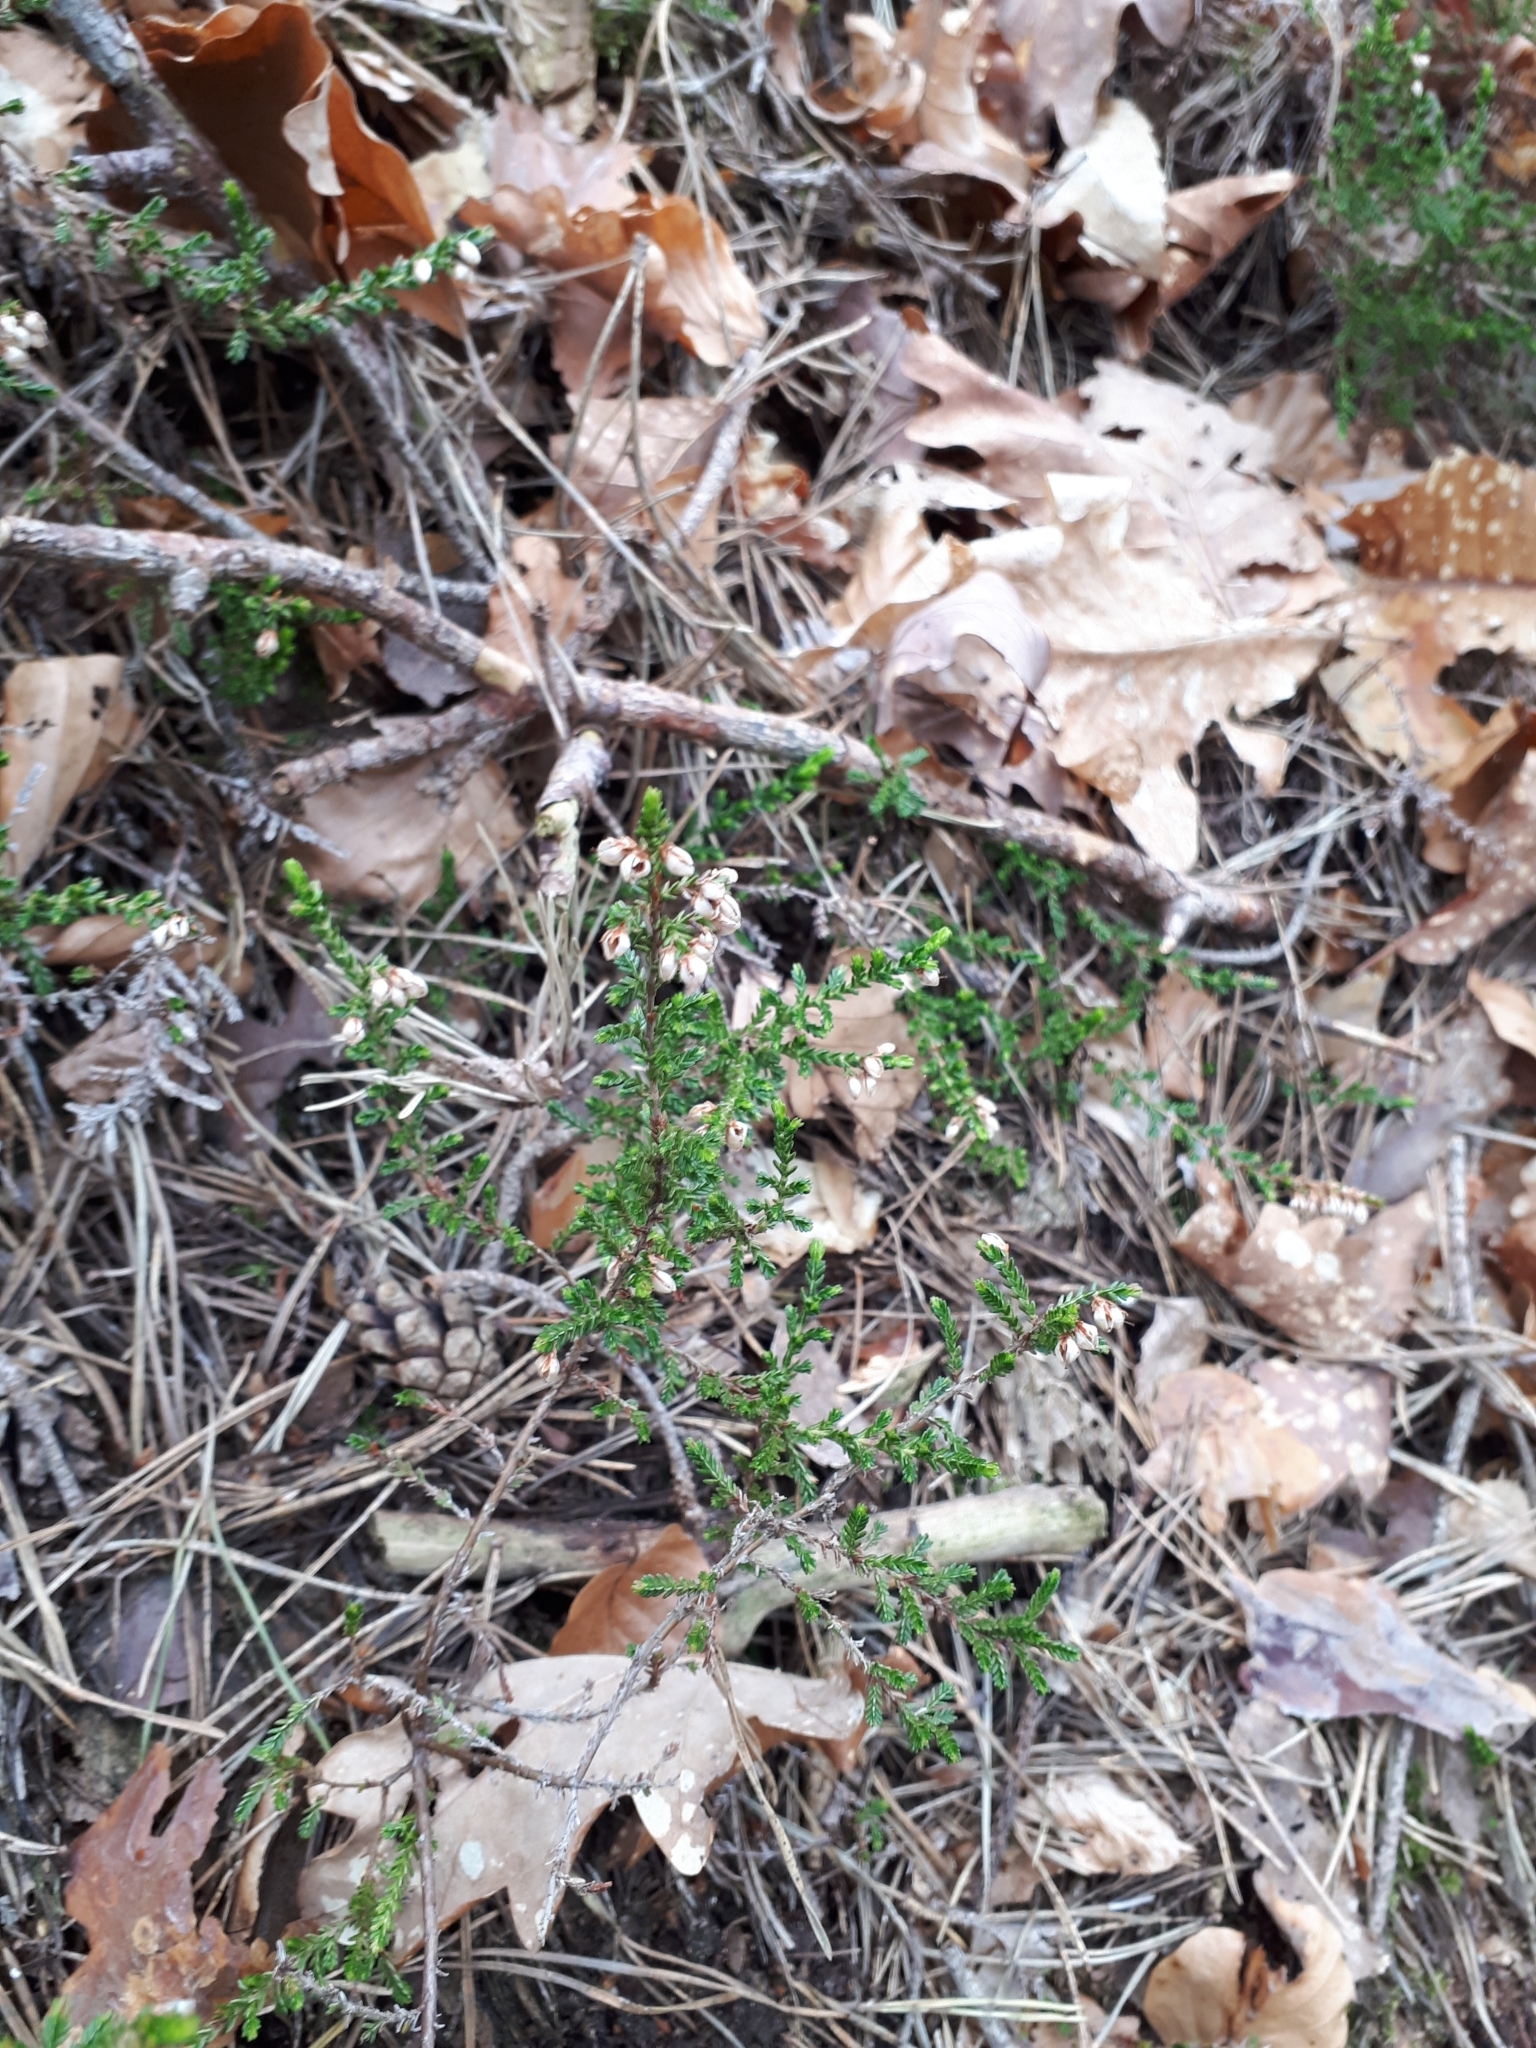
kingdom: Plantae
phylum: Tracheophyta
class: Magnoliopsida
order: Ericales
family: Ericaceae
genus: Calluna
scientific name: Calluna vulgaris
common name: Heather
